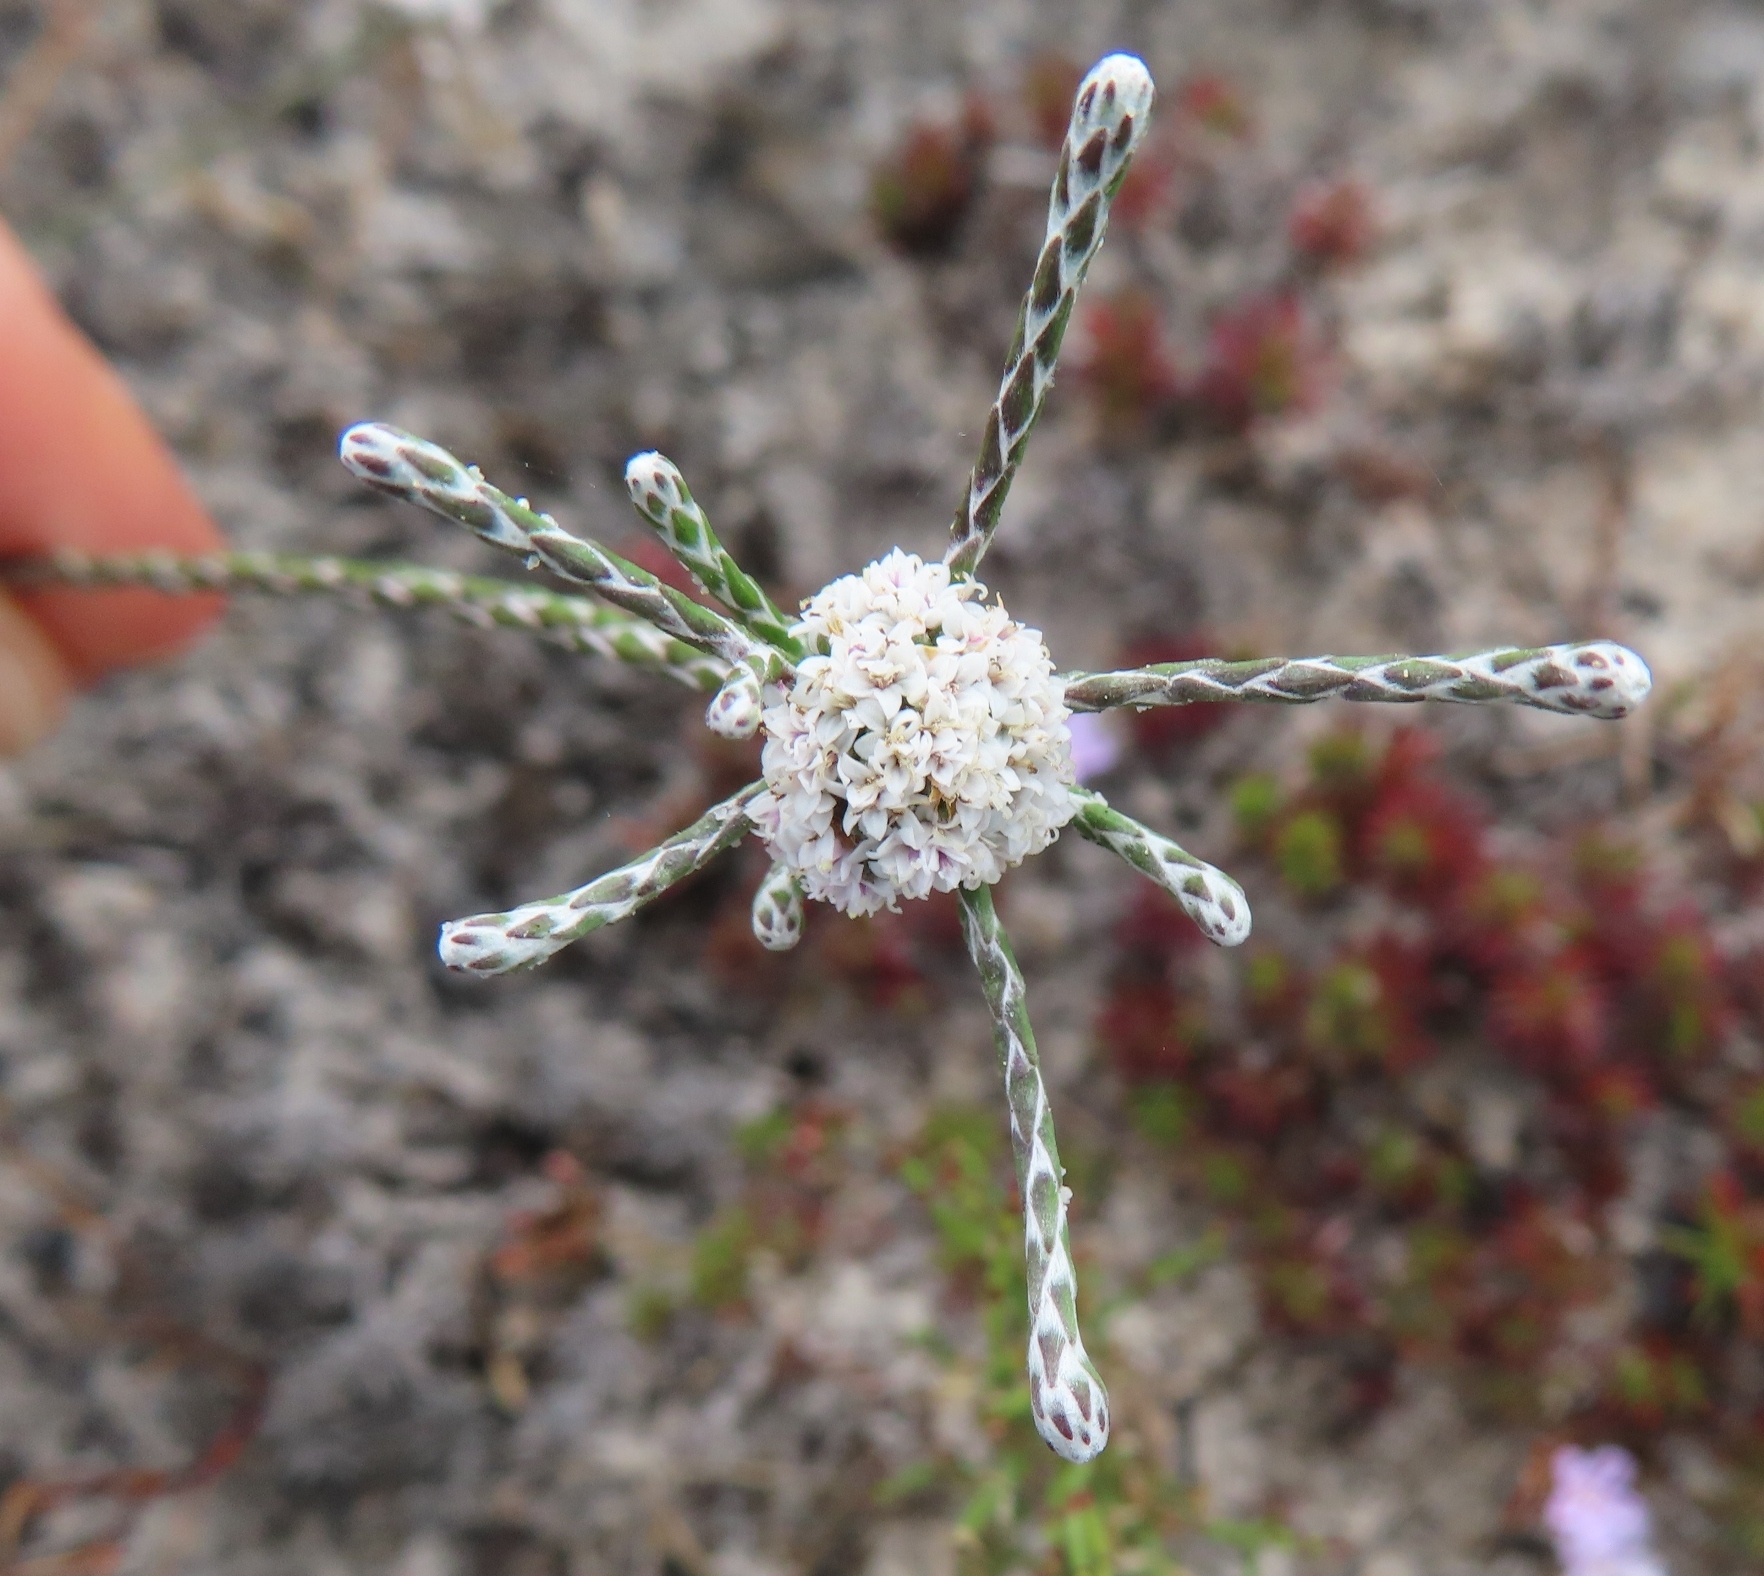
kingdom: Plantae
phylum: Tracheophyta
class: Magnoliopsida
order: Asterales
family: Asteraceae
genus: Stoebe
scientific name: Stoebe schultzii
